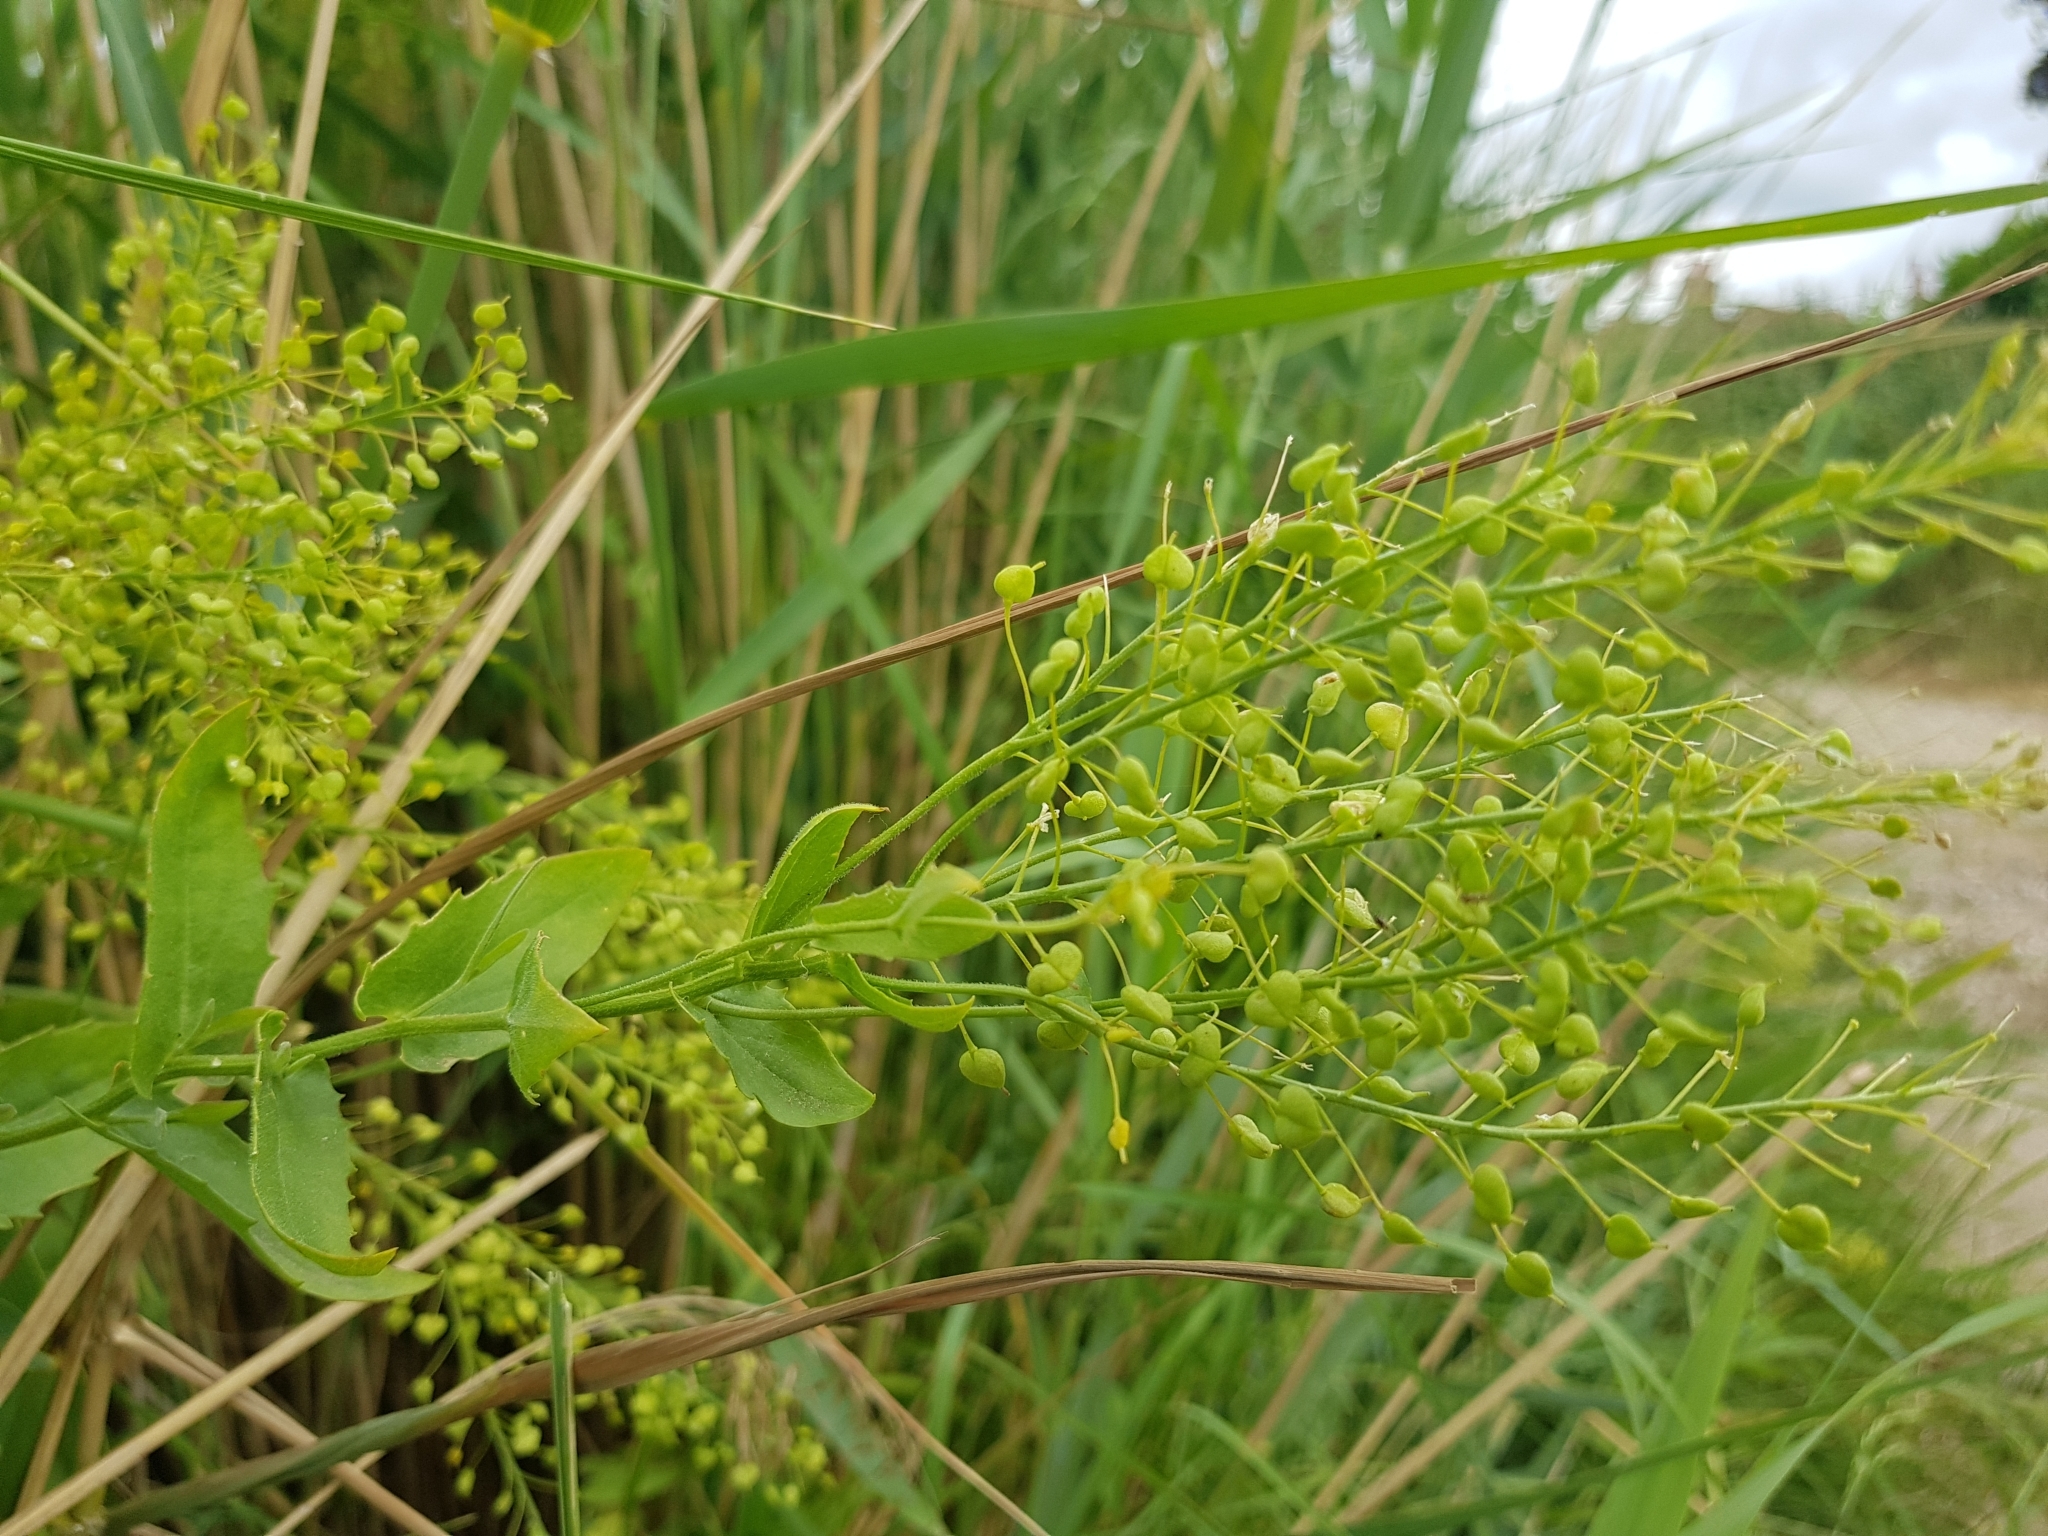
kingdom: Plantae
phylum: Tracheophyta
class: Magnoliopsida
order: Brassicales
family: Brassicaceae
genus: Lepidium
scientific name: Lepidium draba
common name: Hoary cress
